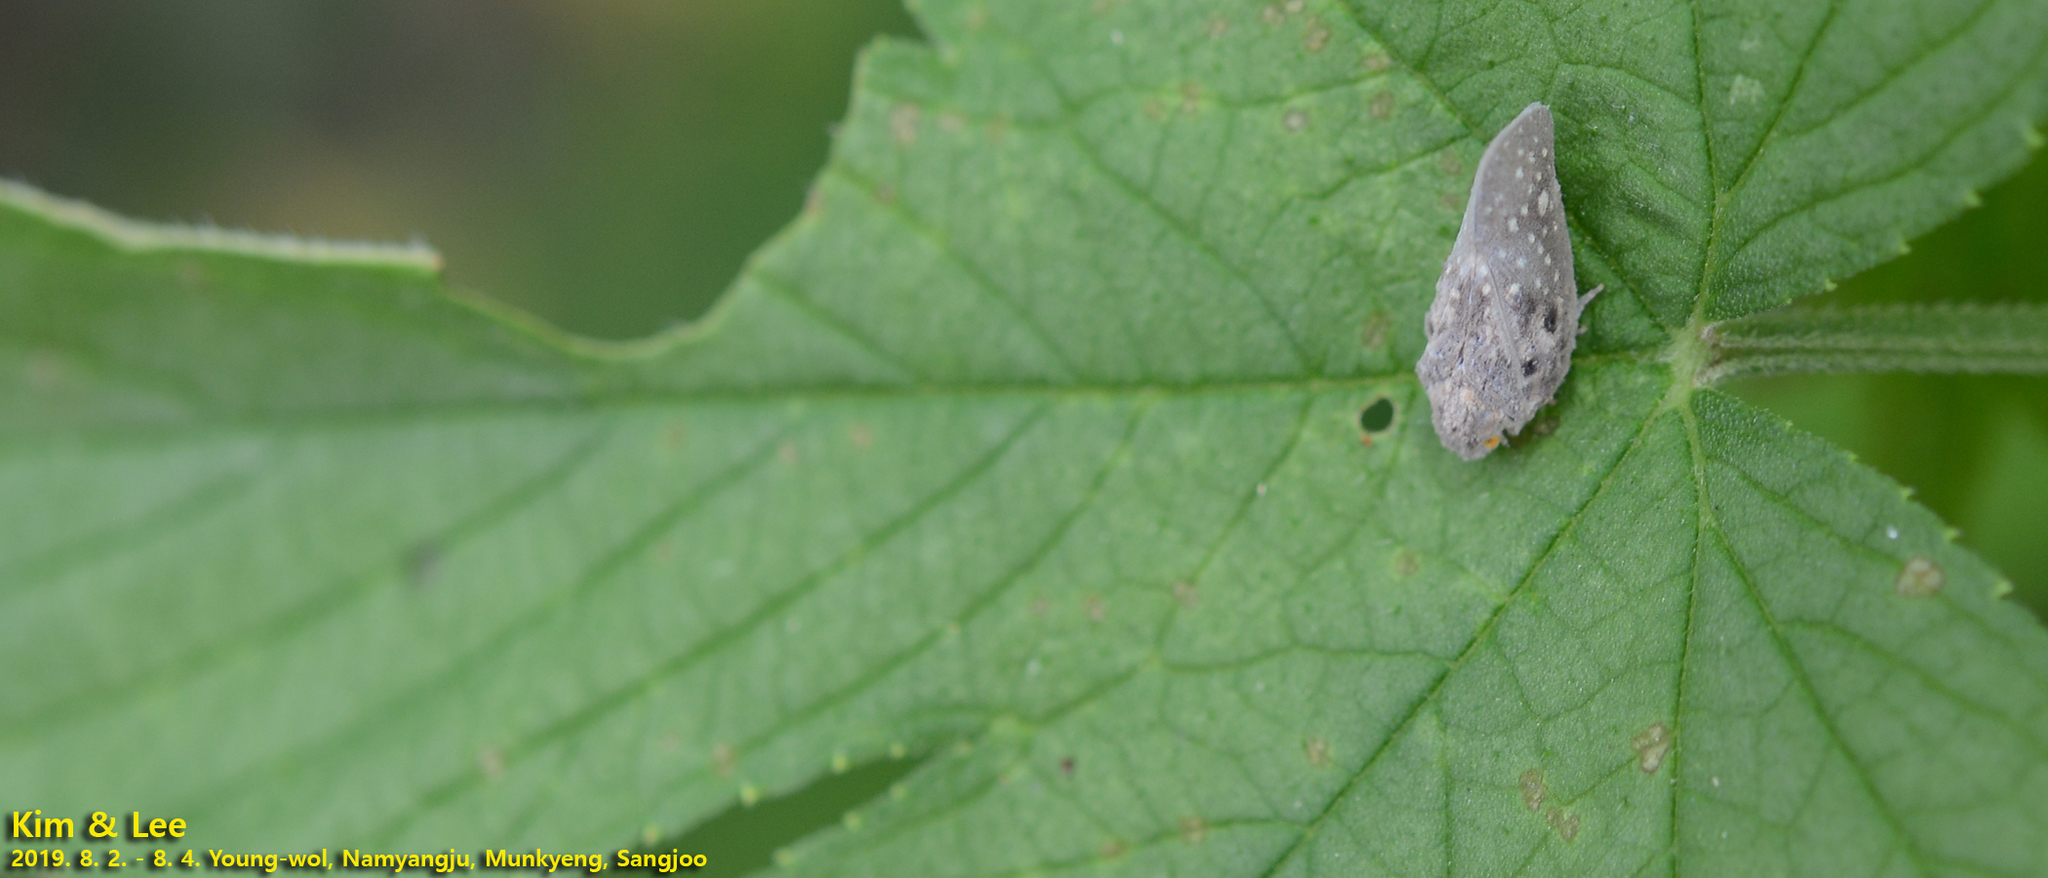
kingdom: Animalia
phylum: Arthropoda
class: Insecta
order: Hemiptera
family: Flatidae
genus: Metcalfa
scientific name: Metcalfa pruinosa
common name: Citrus flatid planthopper
